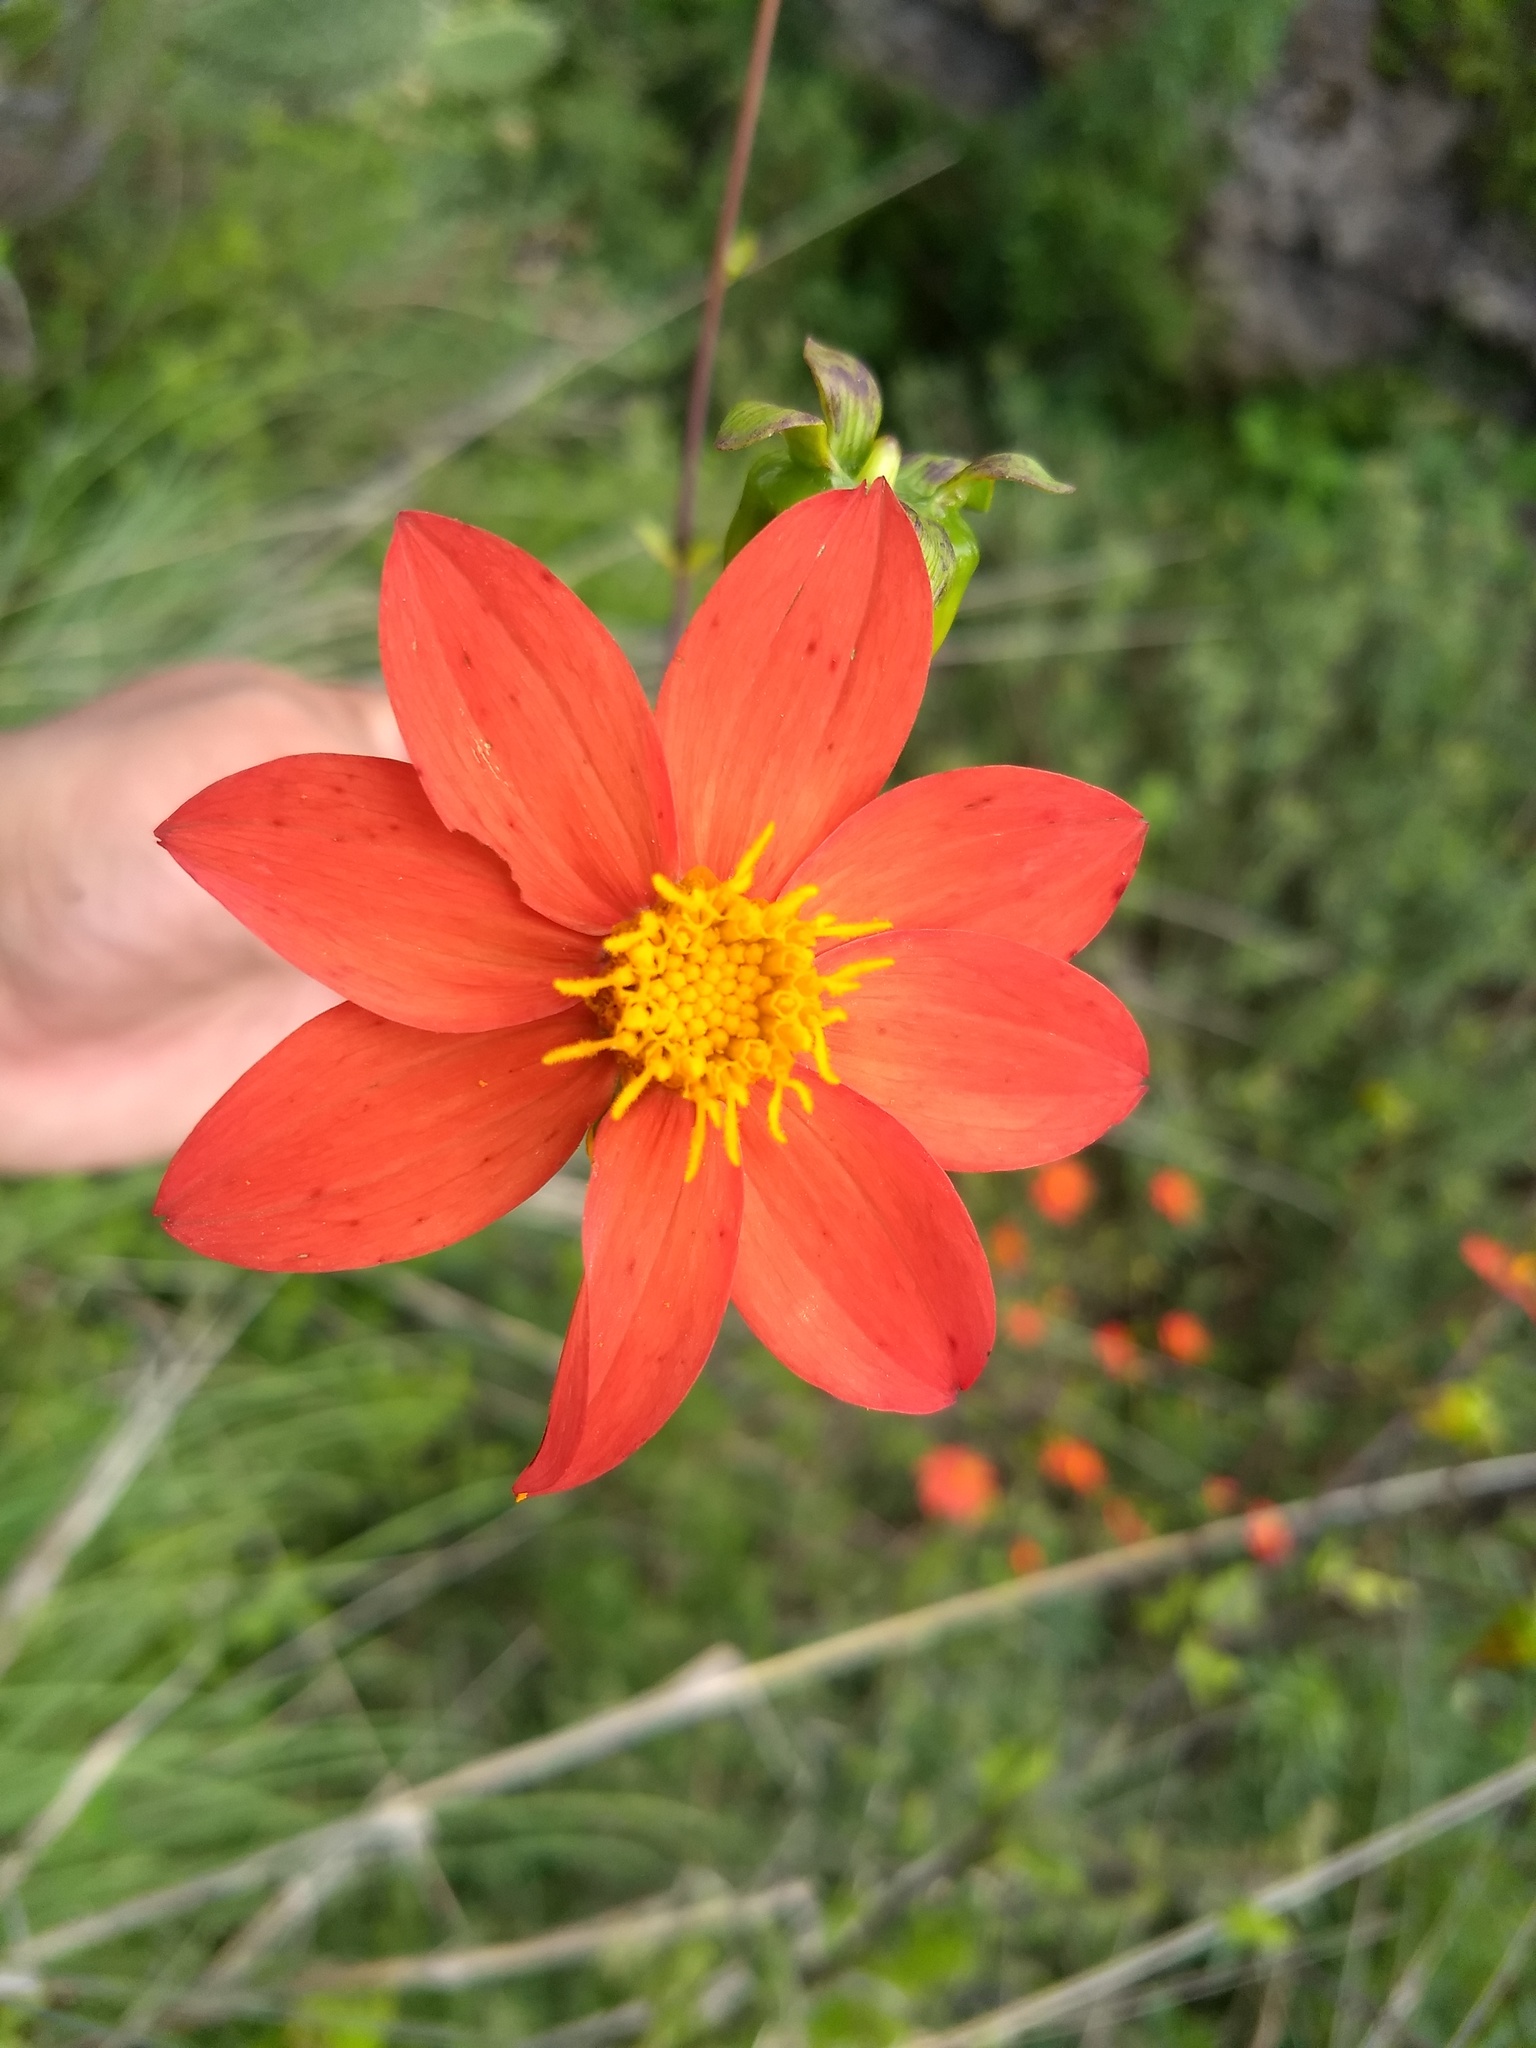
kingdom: Plantae
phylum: Tracheophyta
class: Magnoliopsida
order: Asterales
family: Asteraceae
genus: Dahlia
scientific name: Dahlia coccinea
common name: Red dahlia
